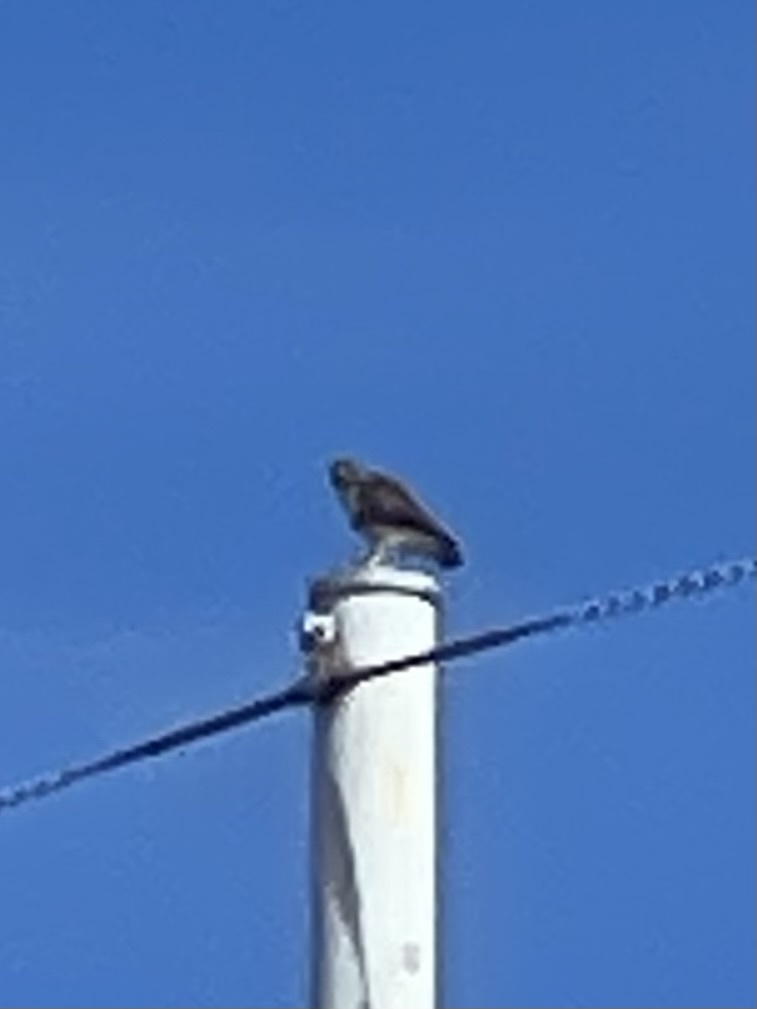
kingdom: Animalia
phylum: Chordata
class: Aves
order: Accipitriformes
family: Accipitridae
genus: Buteo
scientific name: Buteo jamaicensis
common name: Red-tailed hawk
